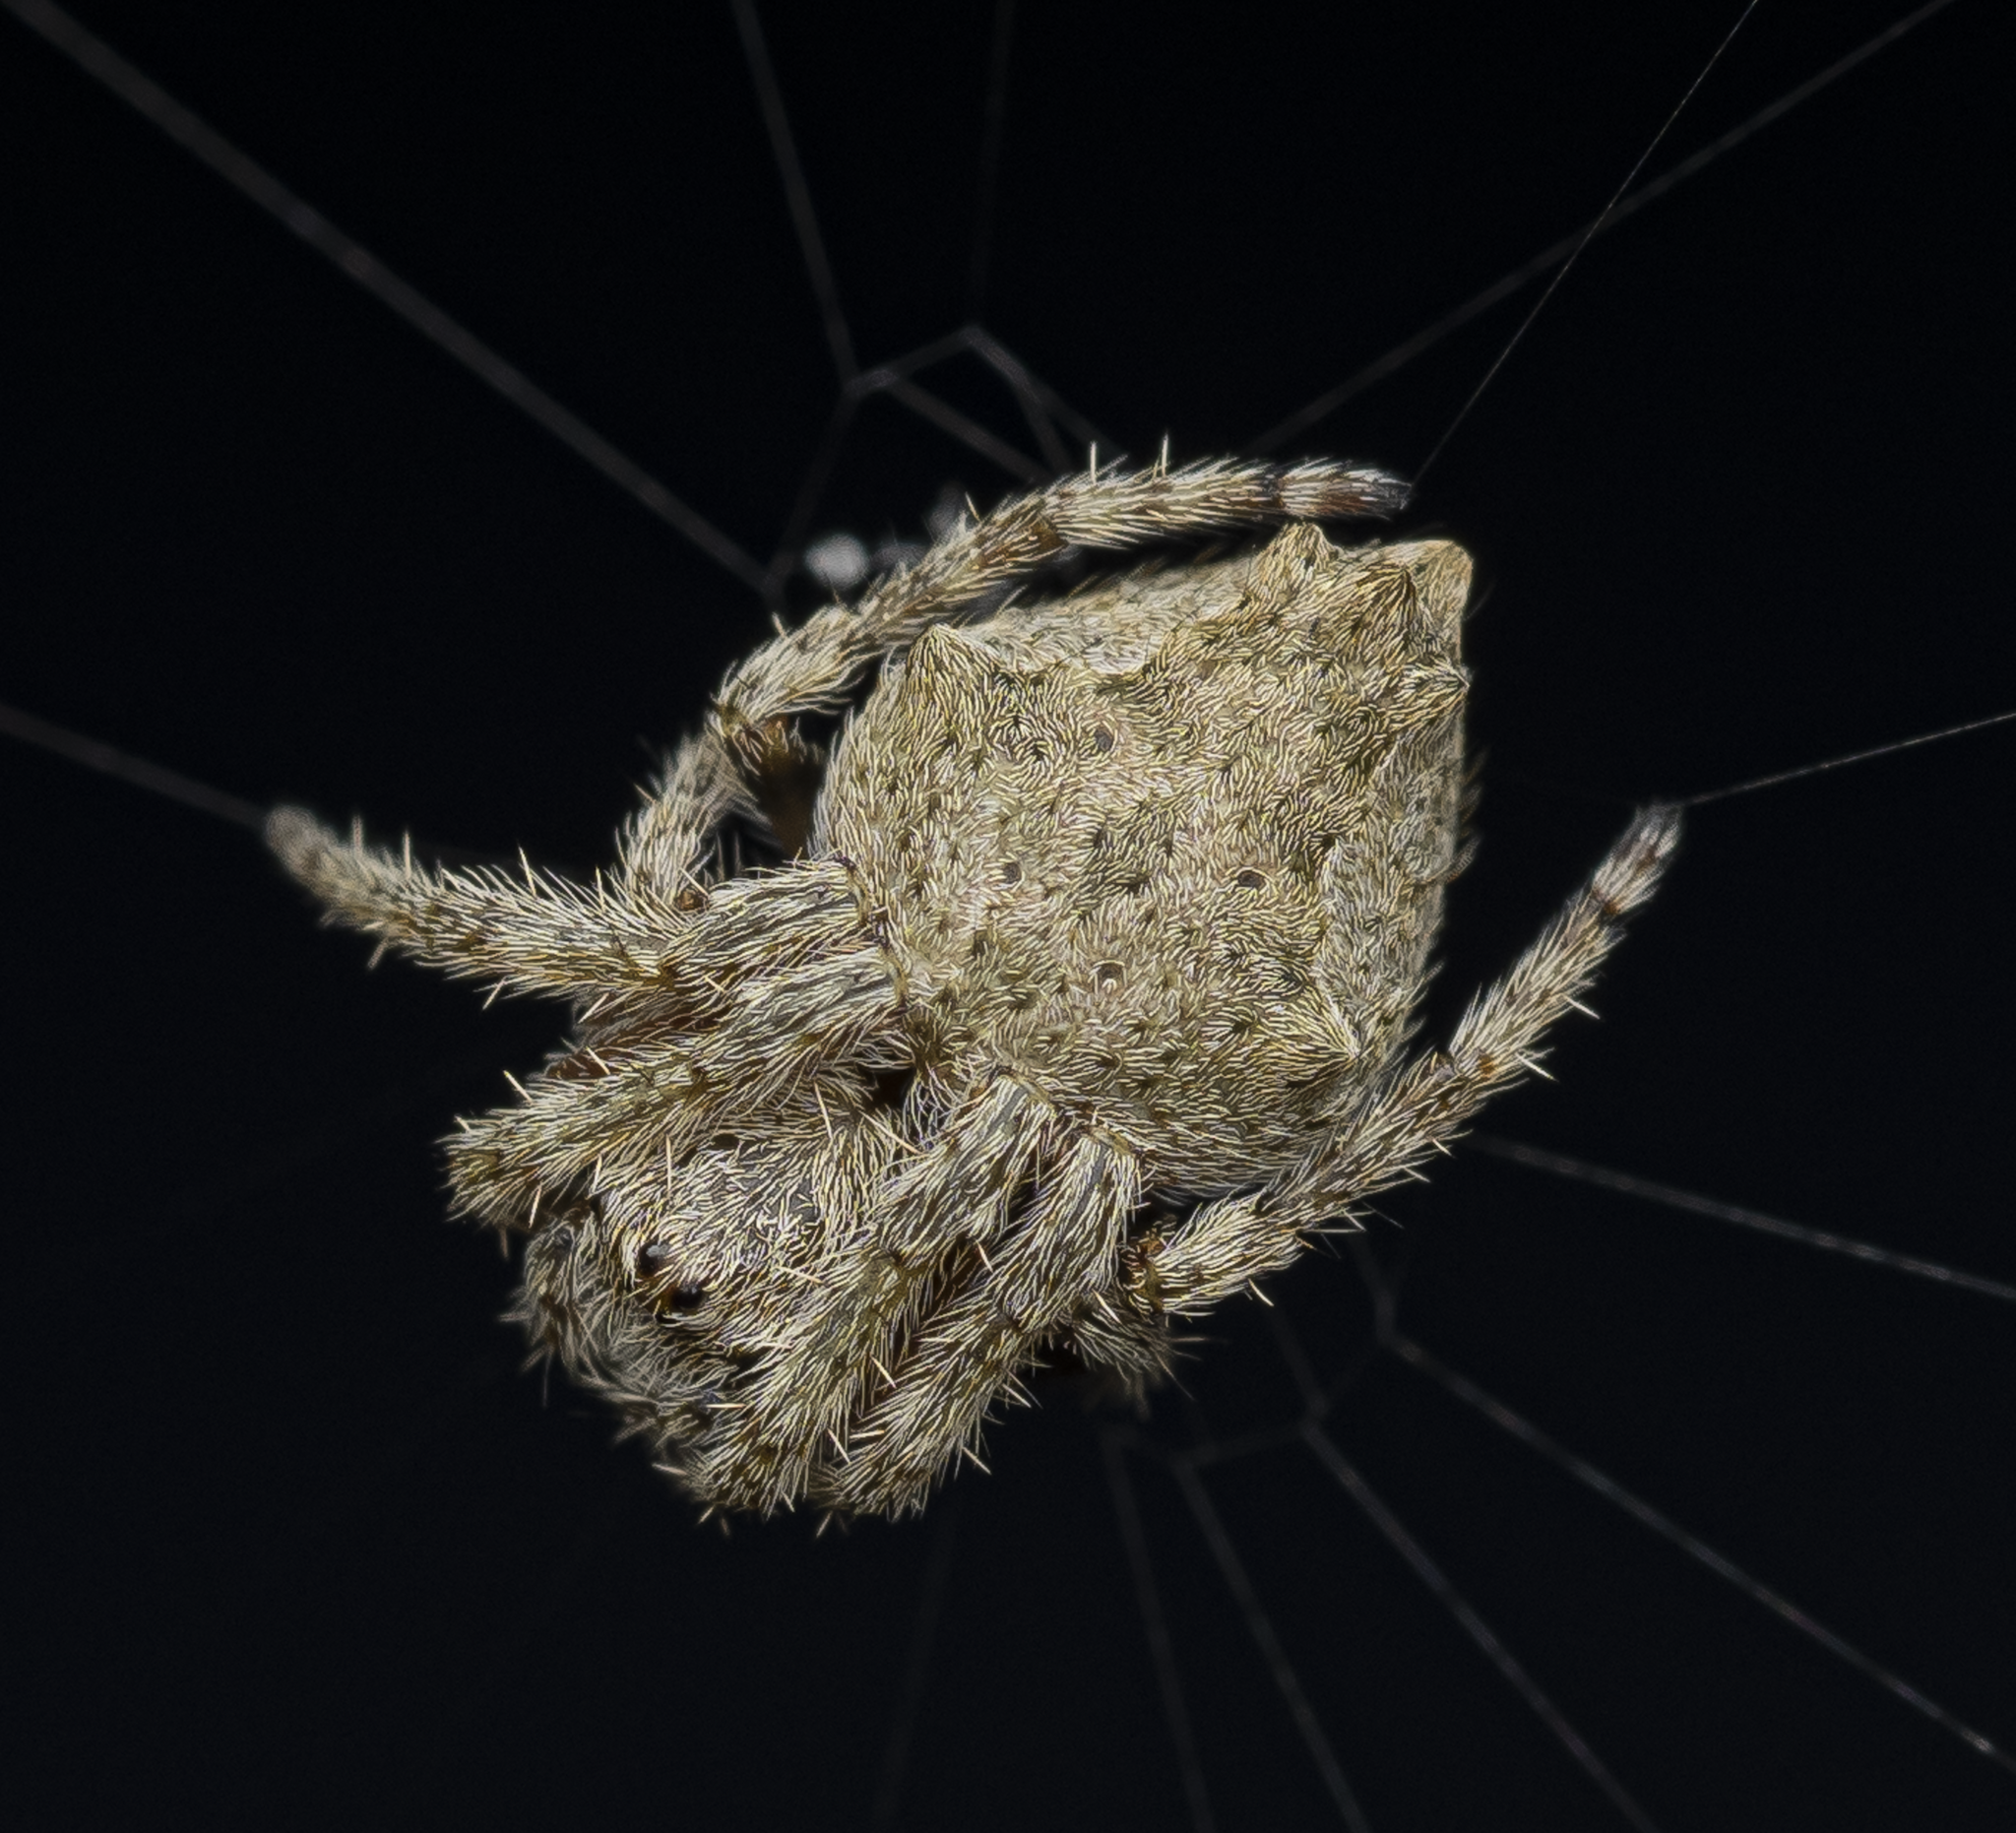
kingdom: Animalia
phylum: Arthropoda
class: Arachnida
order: Araneae
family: Araneidae
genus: Eriophora
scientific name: Eriophora pustulosa
